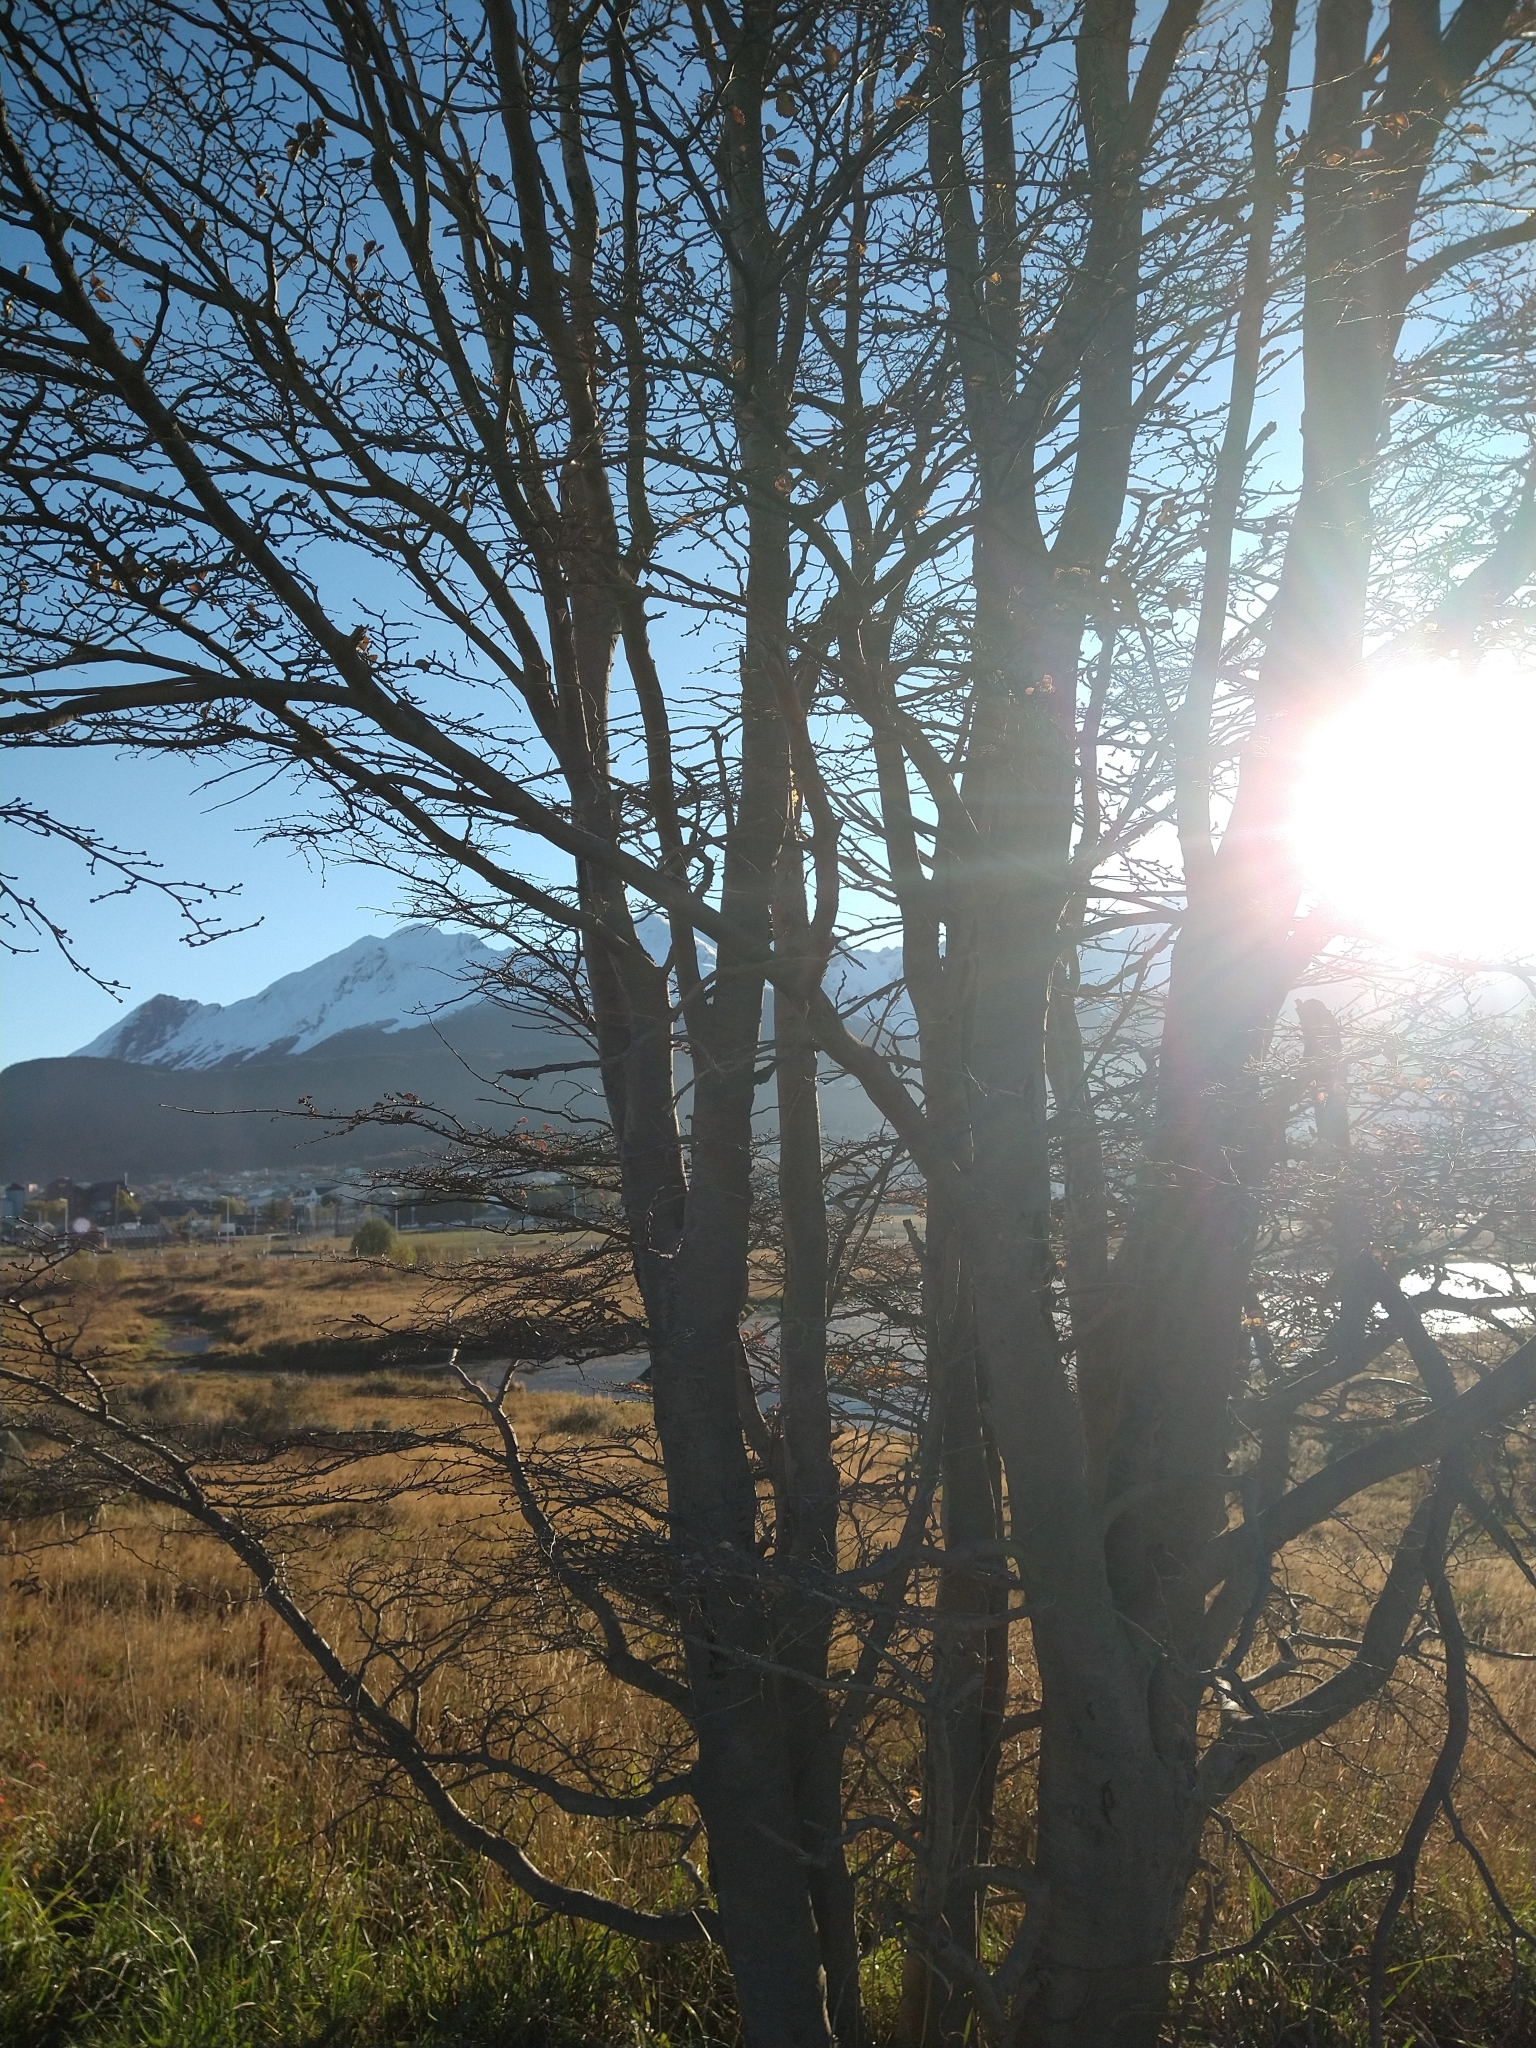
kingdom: Plantae
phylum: Tracheophyta
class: Magnoliopsida
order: Fagales
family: Nothofagaceae
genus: Nothofagus
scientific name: Nothofagus pumilio
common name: Lenga beech
